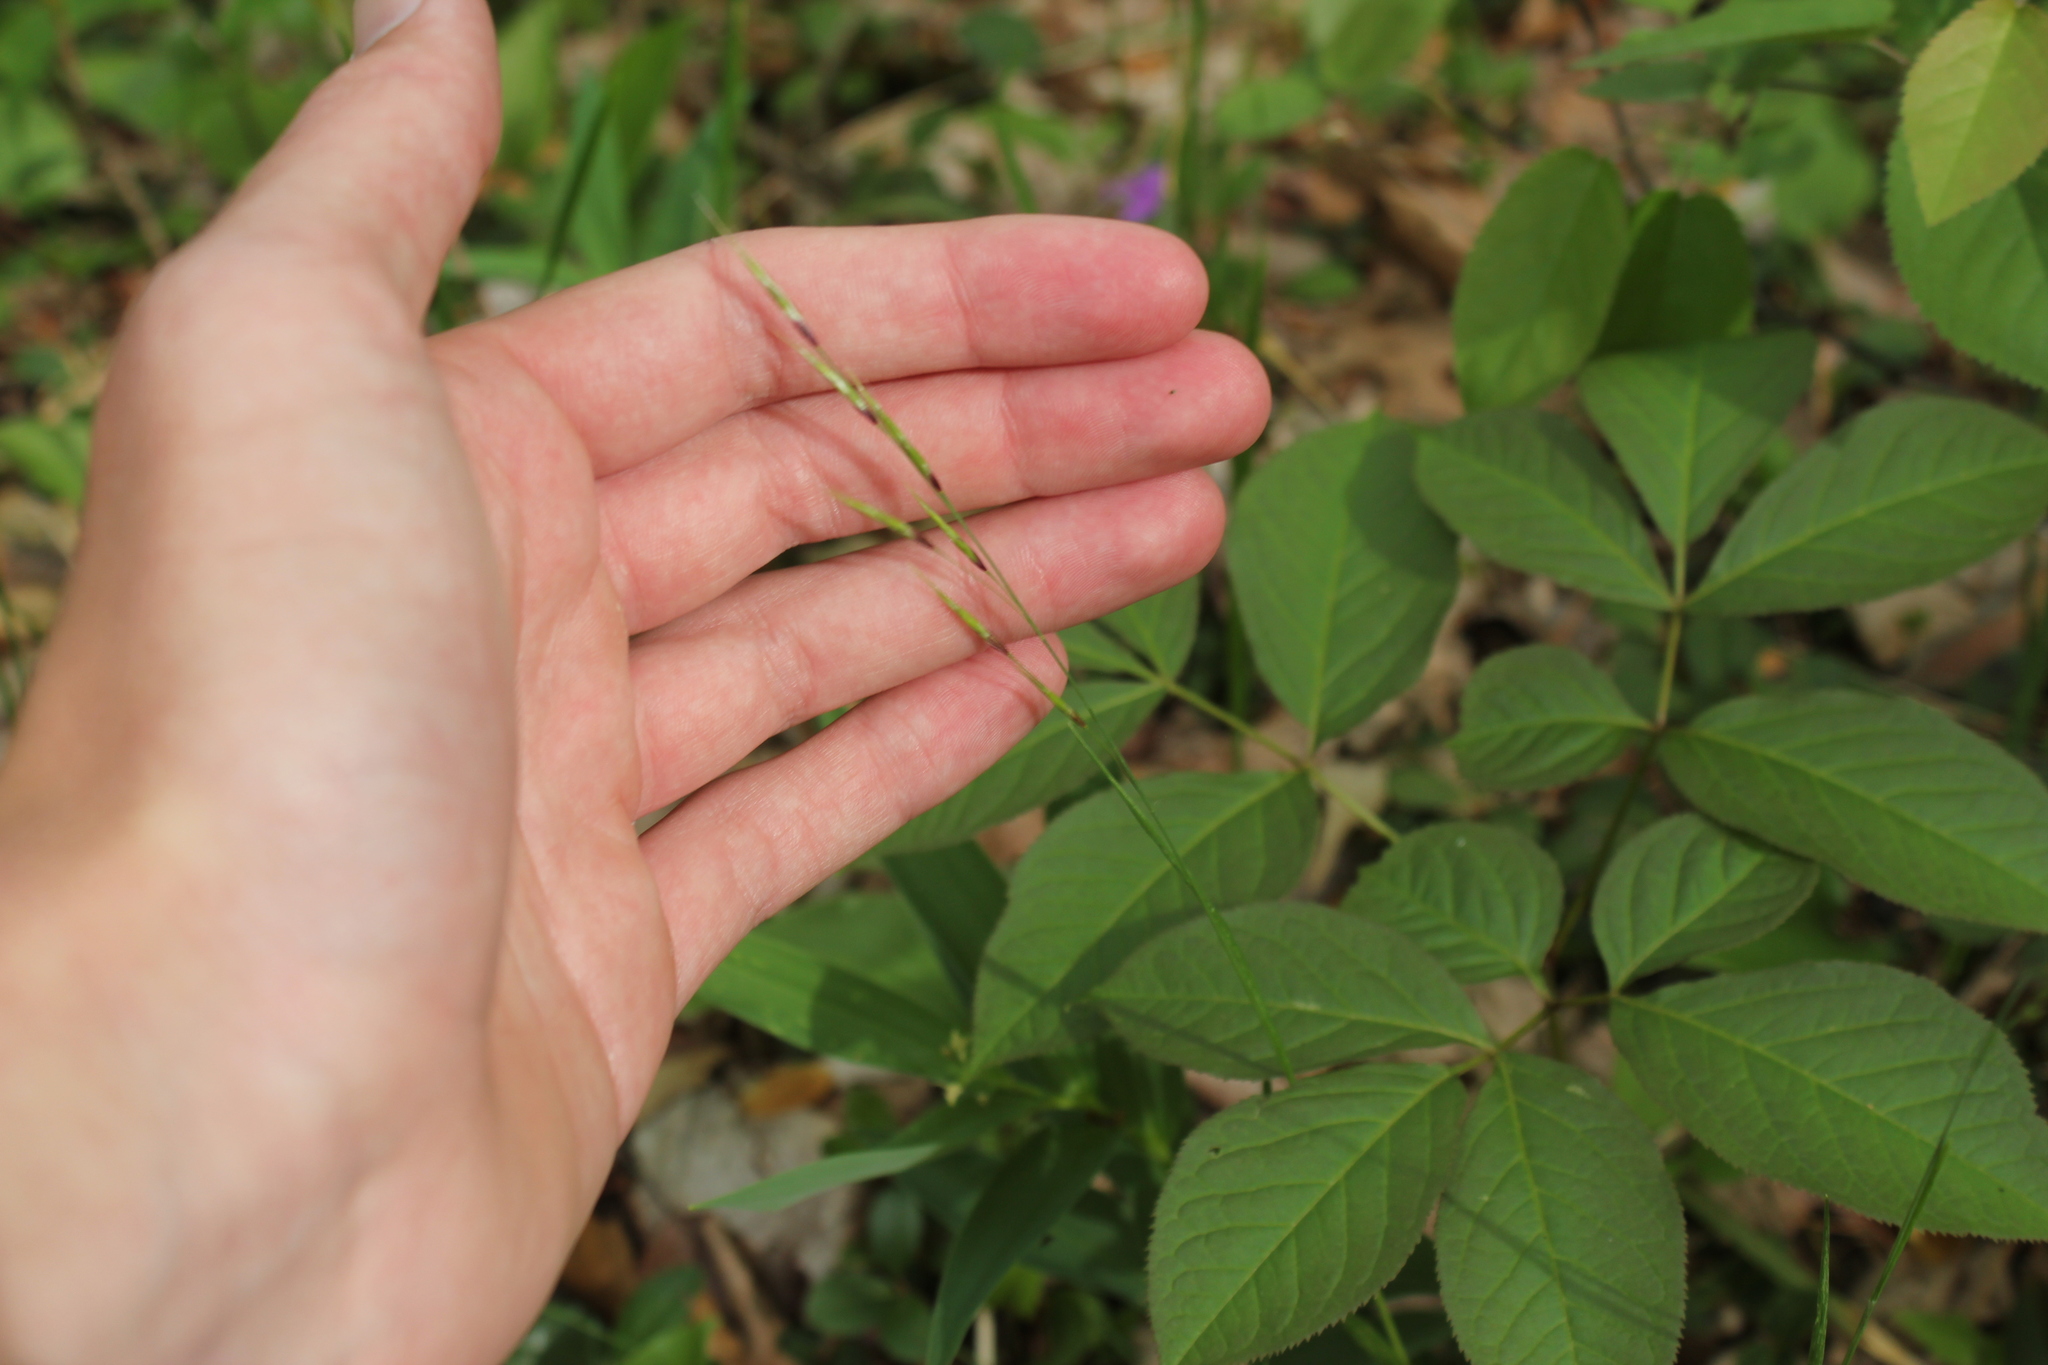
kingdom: Plantae
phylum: Tracheophyta
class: Liliopsida
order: Poales
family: Poaceae
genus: Schizachne
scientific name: Schizachne purpurascens
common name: False melic
